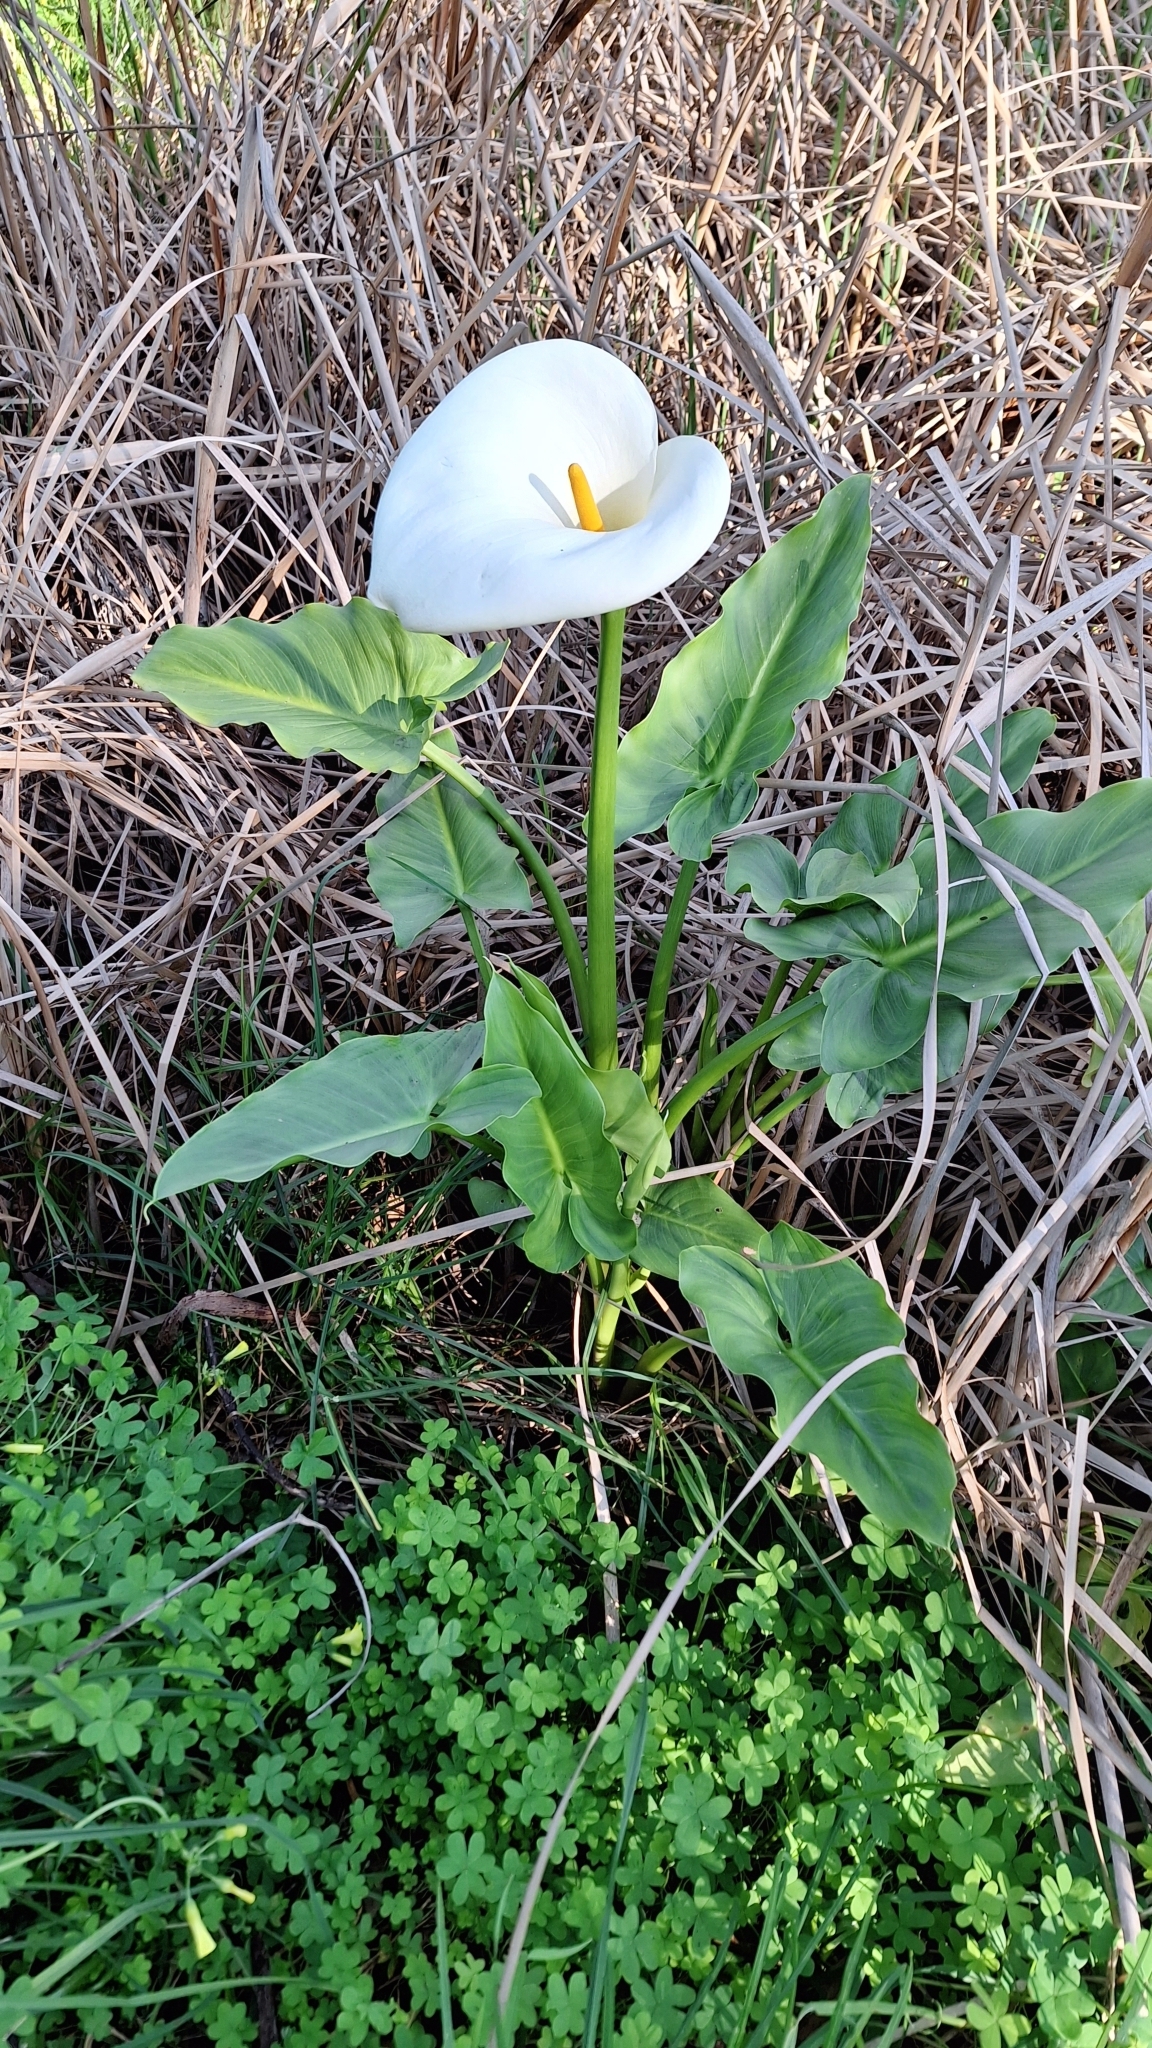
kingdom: Plantae
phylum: Tracheophyta
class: Liliopsida
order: Alismatales
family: Araceae
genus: Zantedeschia
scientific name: Zantedeschia aethiopica
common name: Altar-lily
